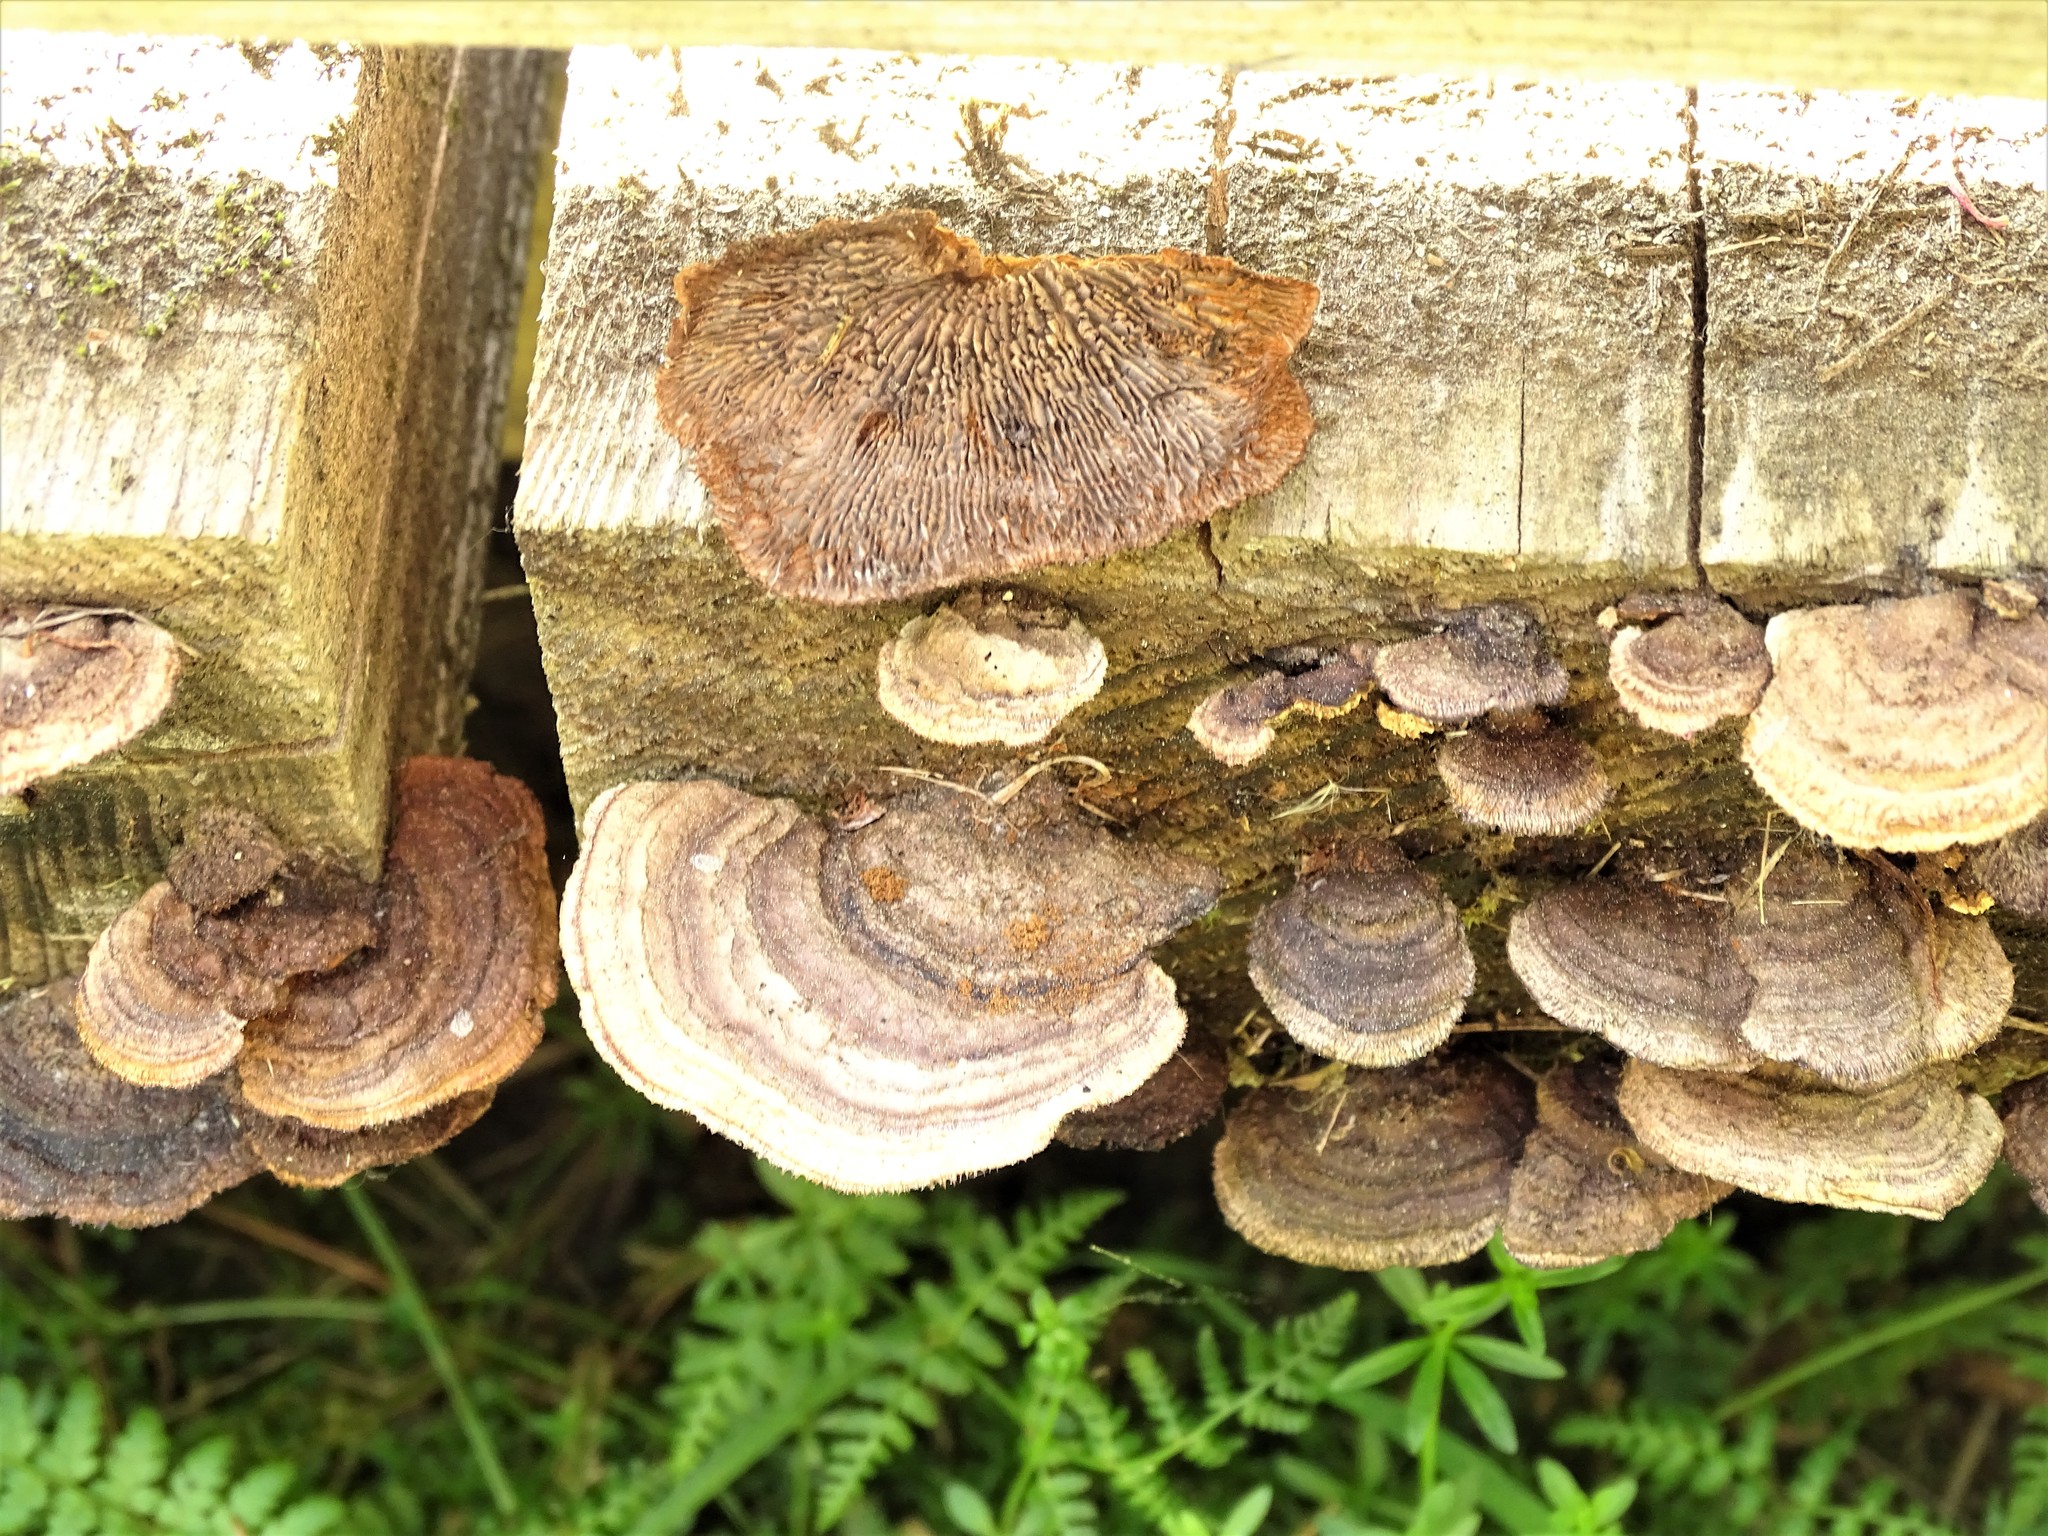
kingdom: Fungi
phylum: Basidiomycota
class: Agaricomycetes
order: Gloeophyllales
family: Gloeophyllaceae
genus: Gloeophyllum
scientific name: Gloeophyllum sepiarium
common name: Conifer mazegill
